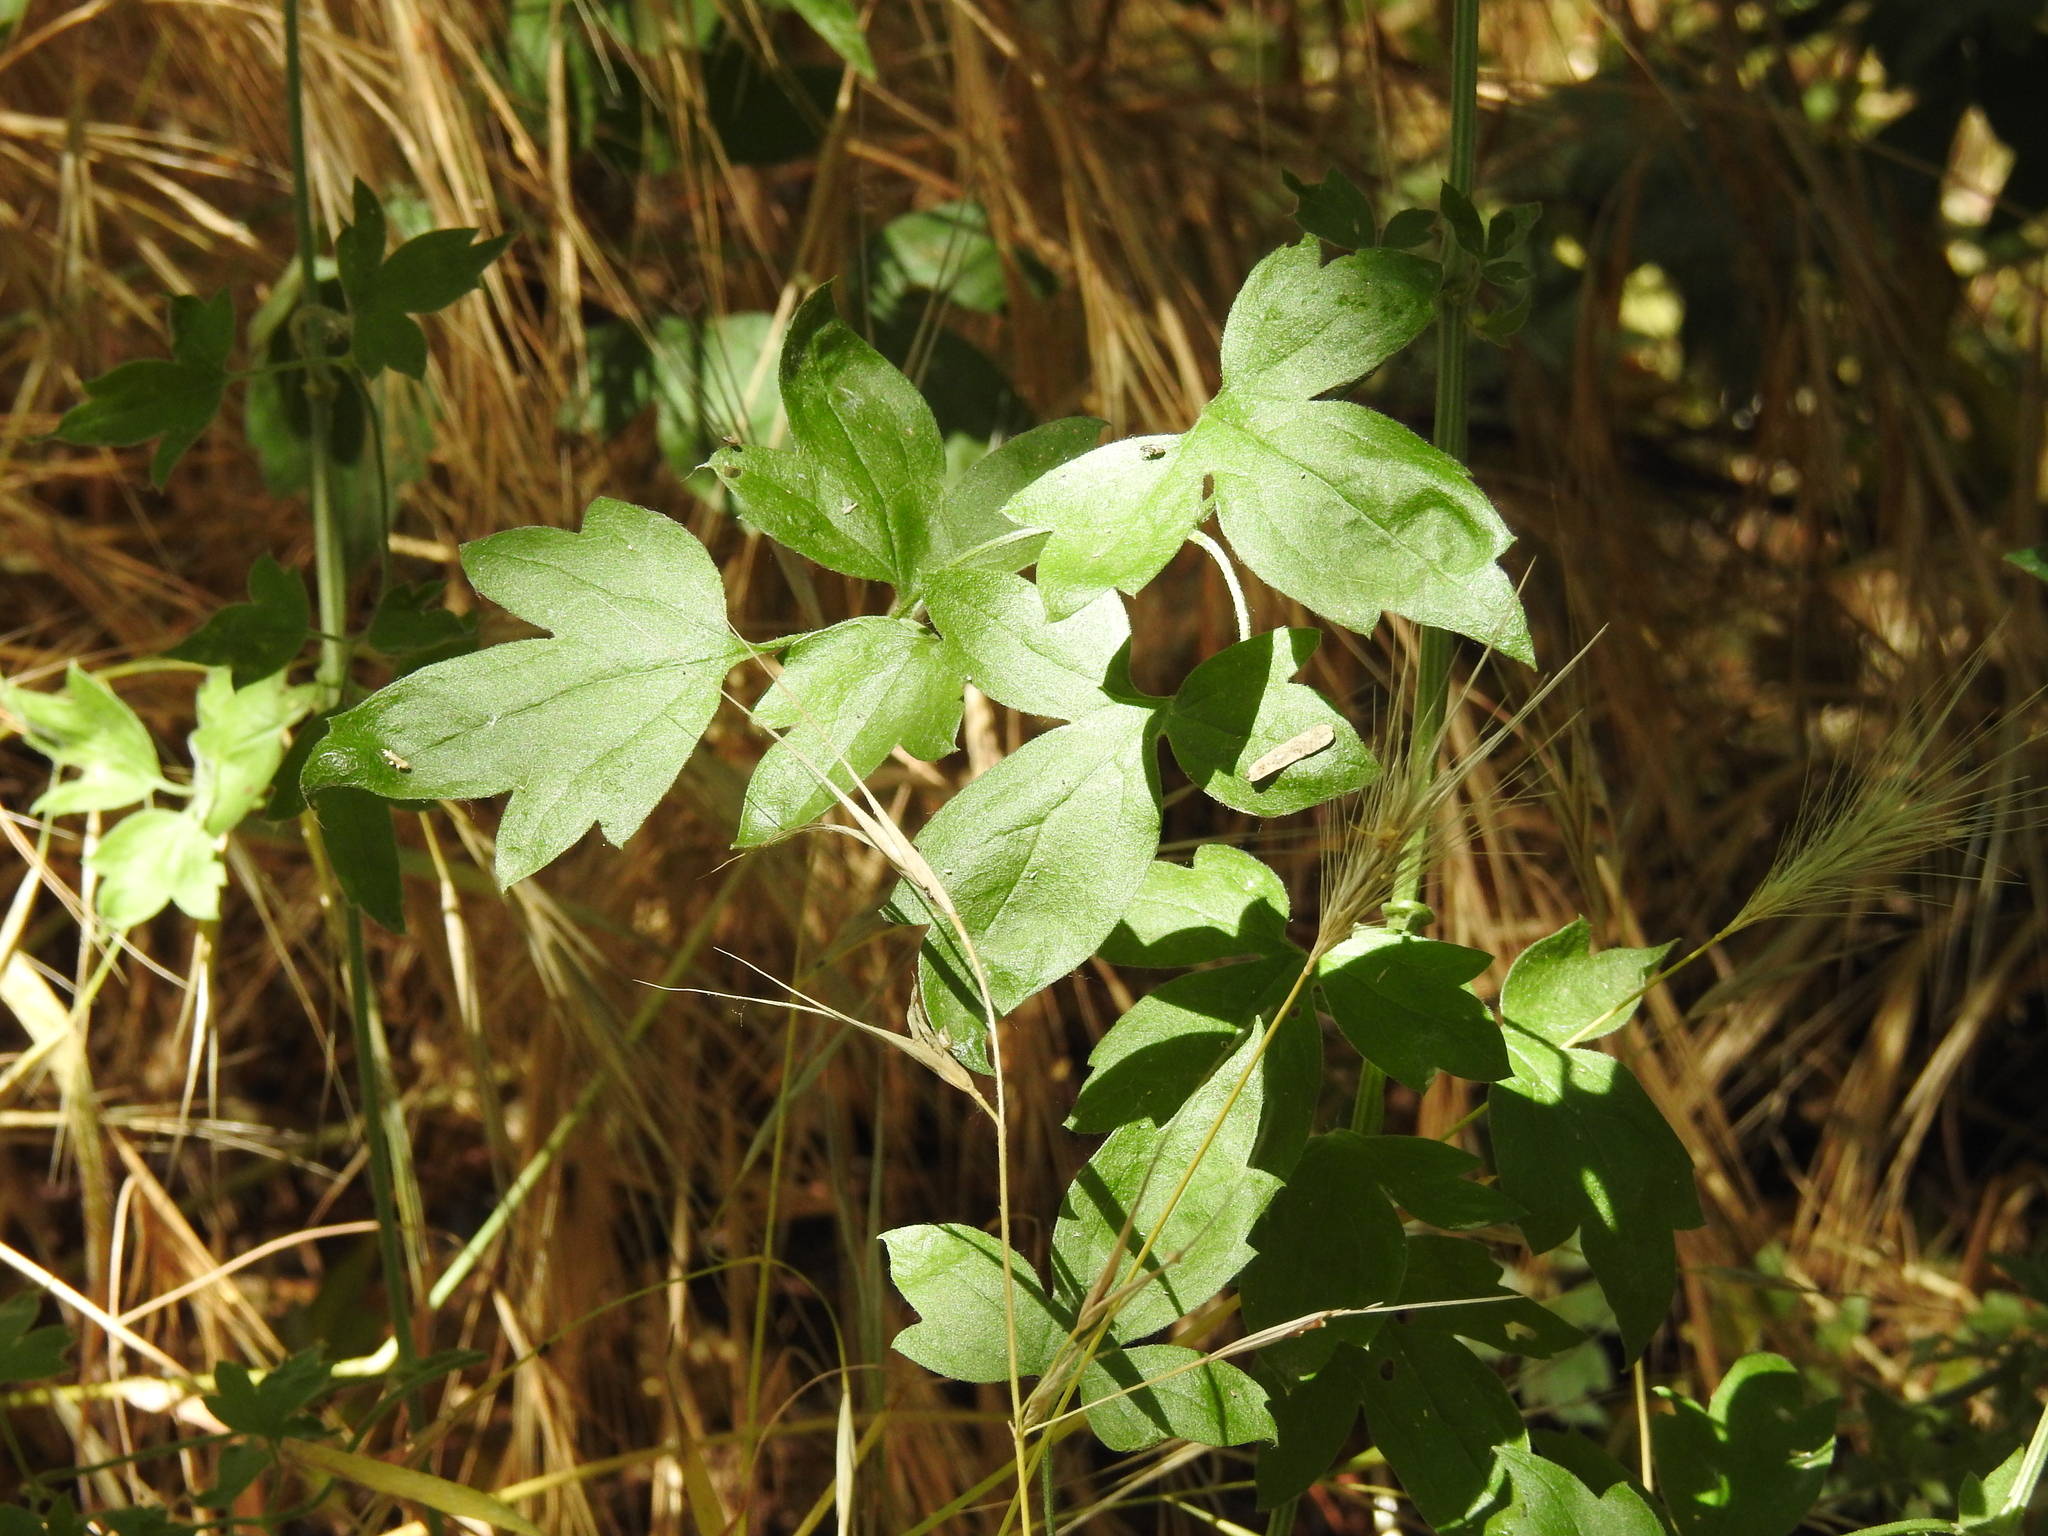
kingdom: Plantae
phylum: Tracheophyta
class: Magnoliopsida
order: Ranunculales
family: Ranunculaceae
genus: Clematis
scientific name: Clematis drummondii
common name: Texas virgin's bower
